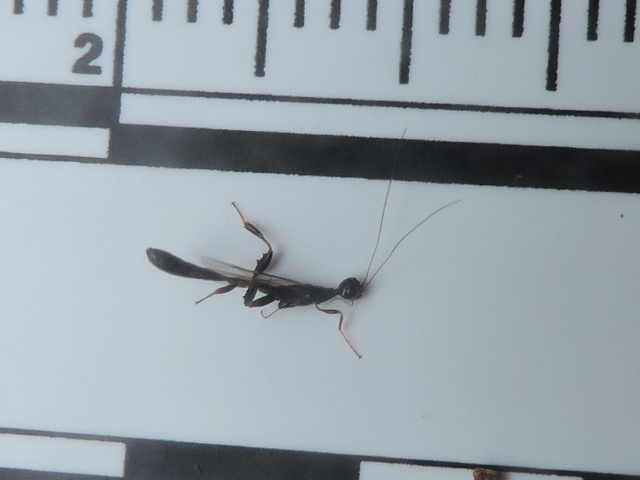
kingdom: Animalia
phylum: Arthropoda
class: Insecta
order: Hymenoptera
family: Stephanidae
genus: Megischus
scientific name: Megischus
